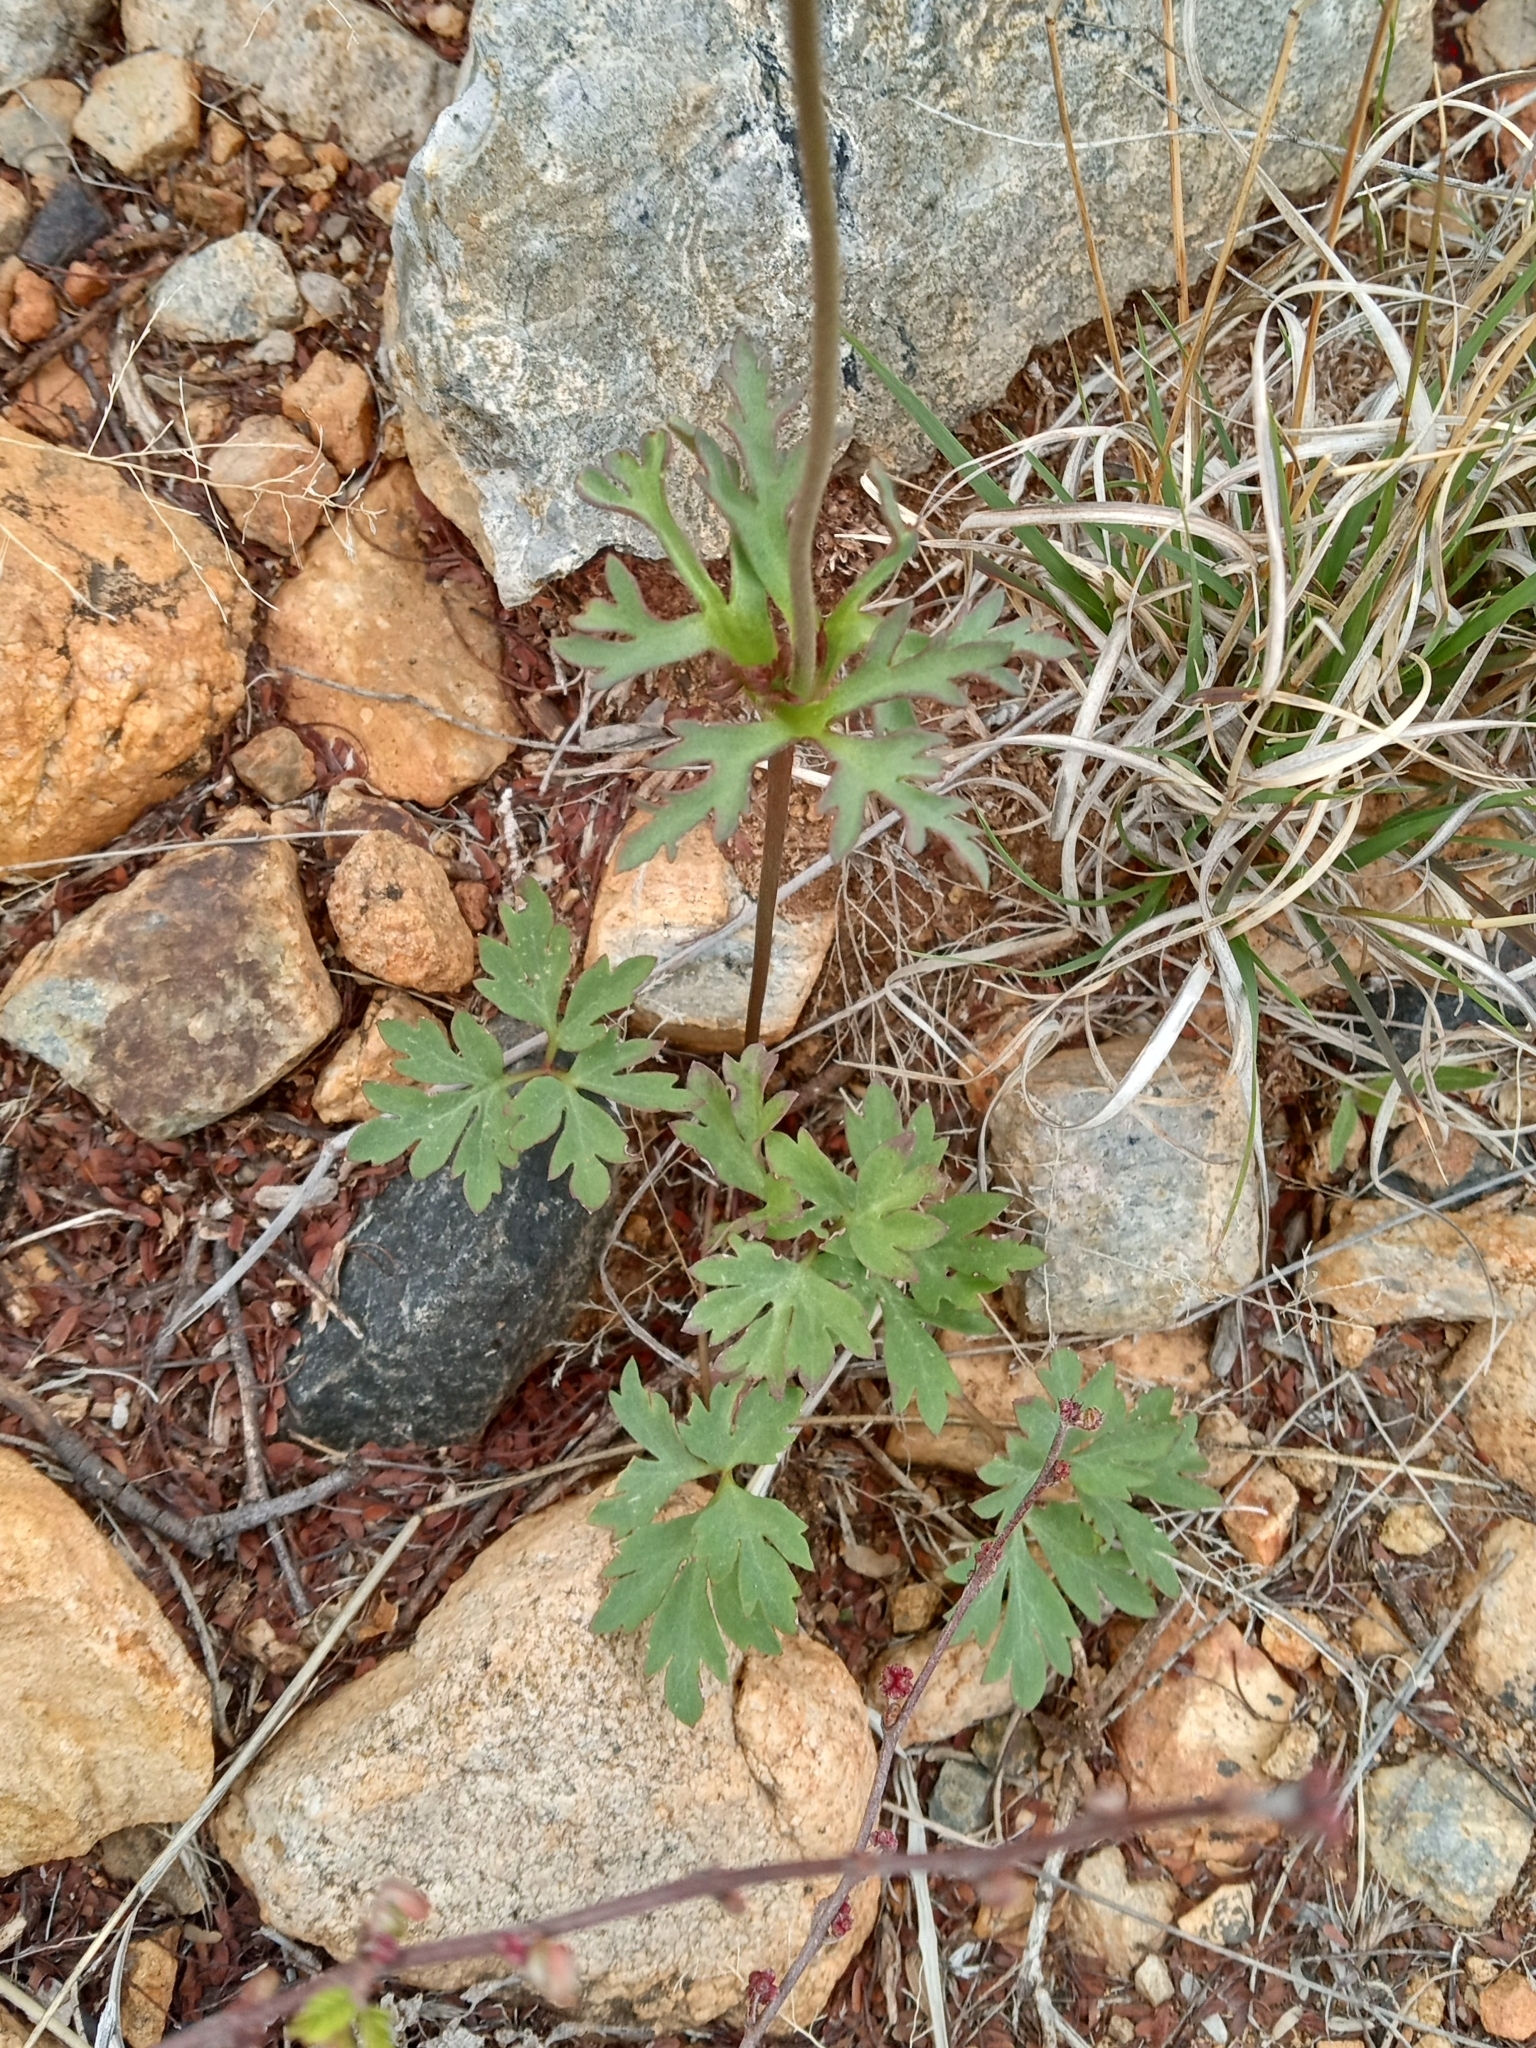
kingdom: Plantae
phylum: Tracheophyta
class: Magnoliopsida
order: Ranunculales
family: Ranunculaceae
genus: Anemone
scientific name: Anemone tuberosa
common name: Desert anemone
